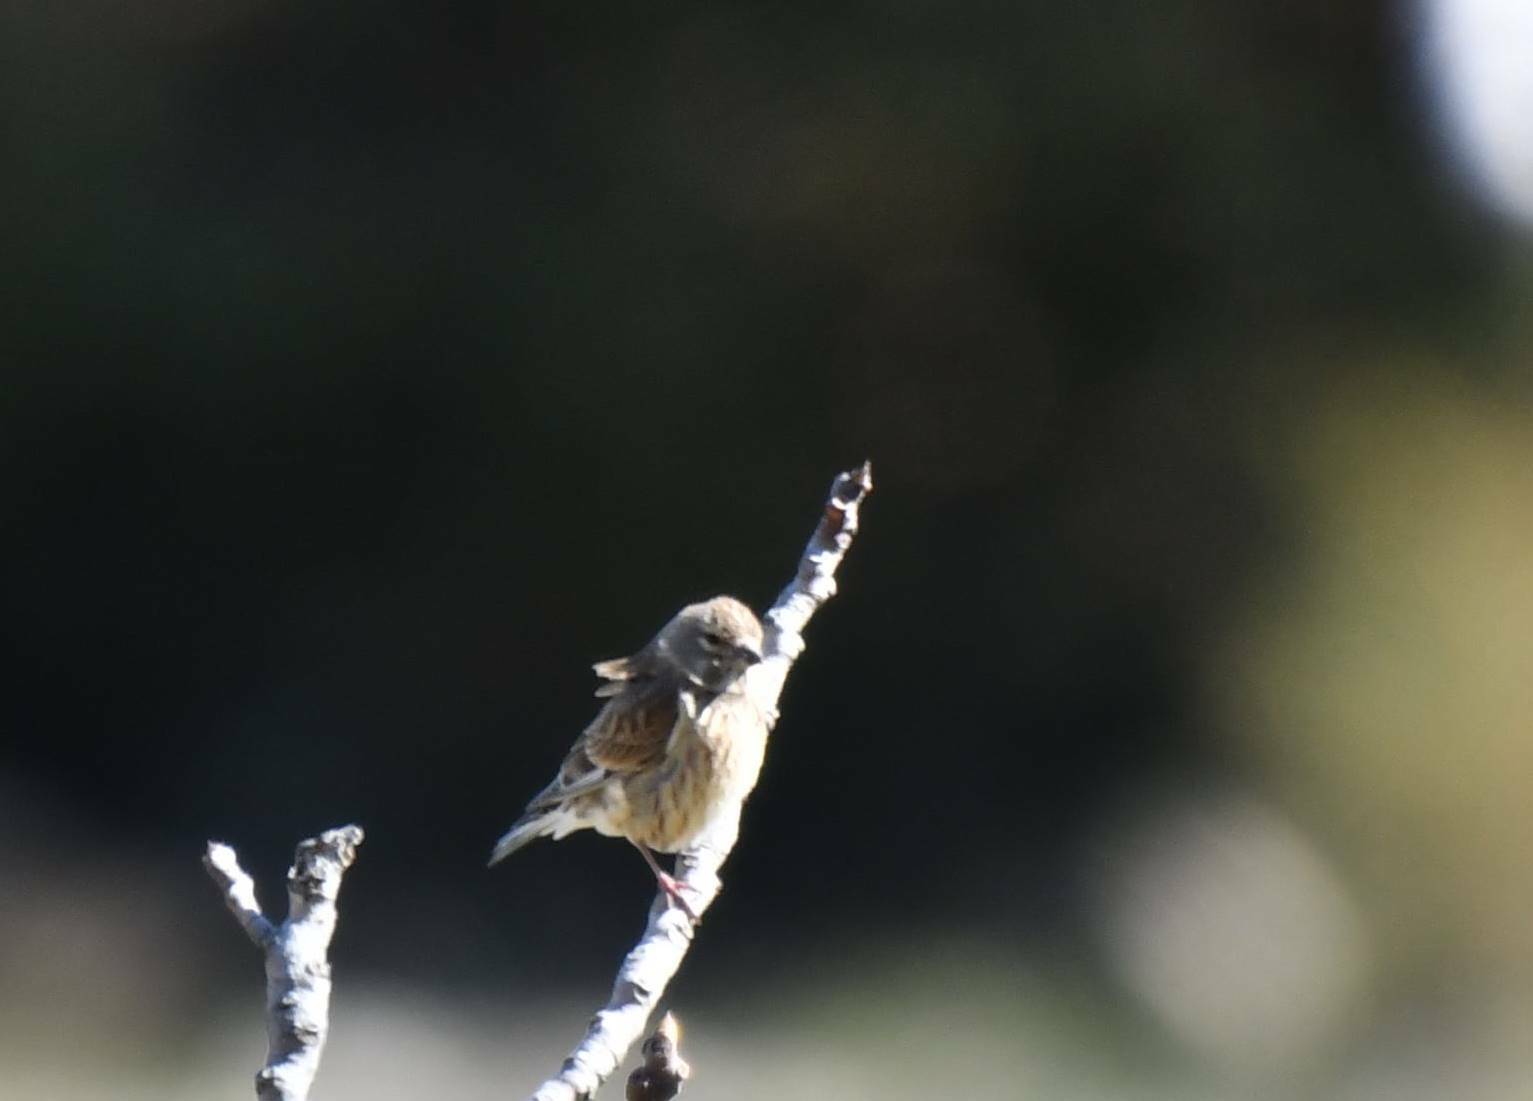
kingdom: Animalia
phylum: Chordata
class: Aves
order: Passeriformes
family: Fringillidae
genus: Linaria
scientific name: Linaria cannabina
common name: Common linnet
